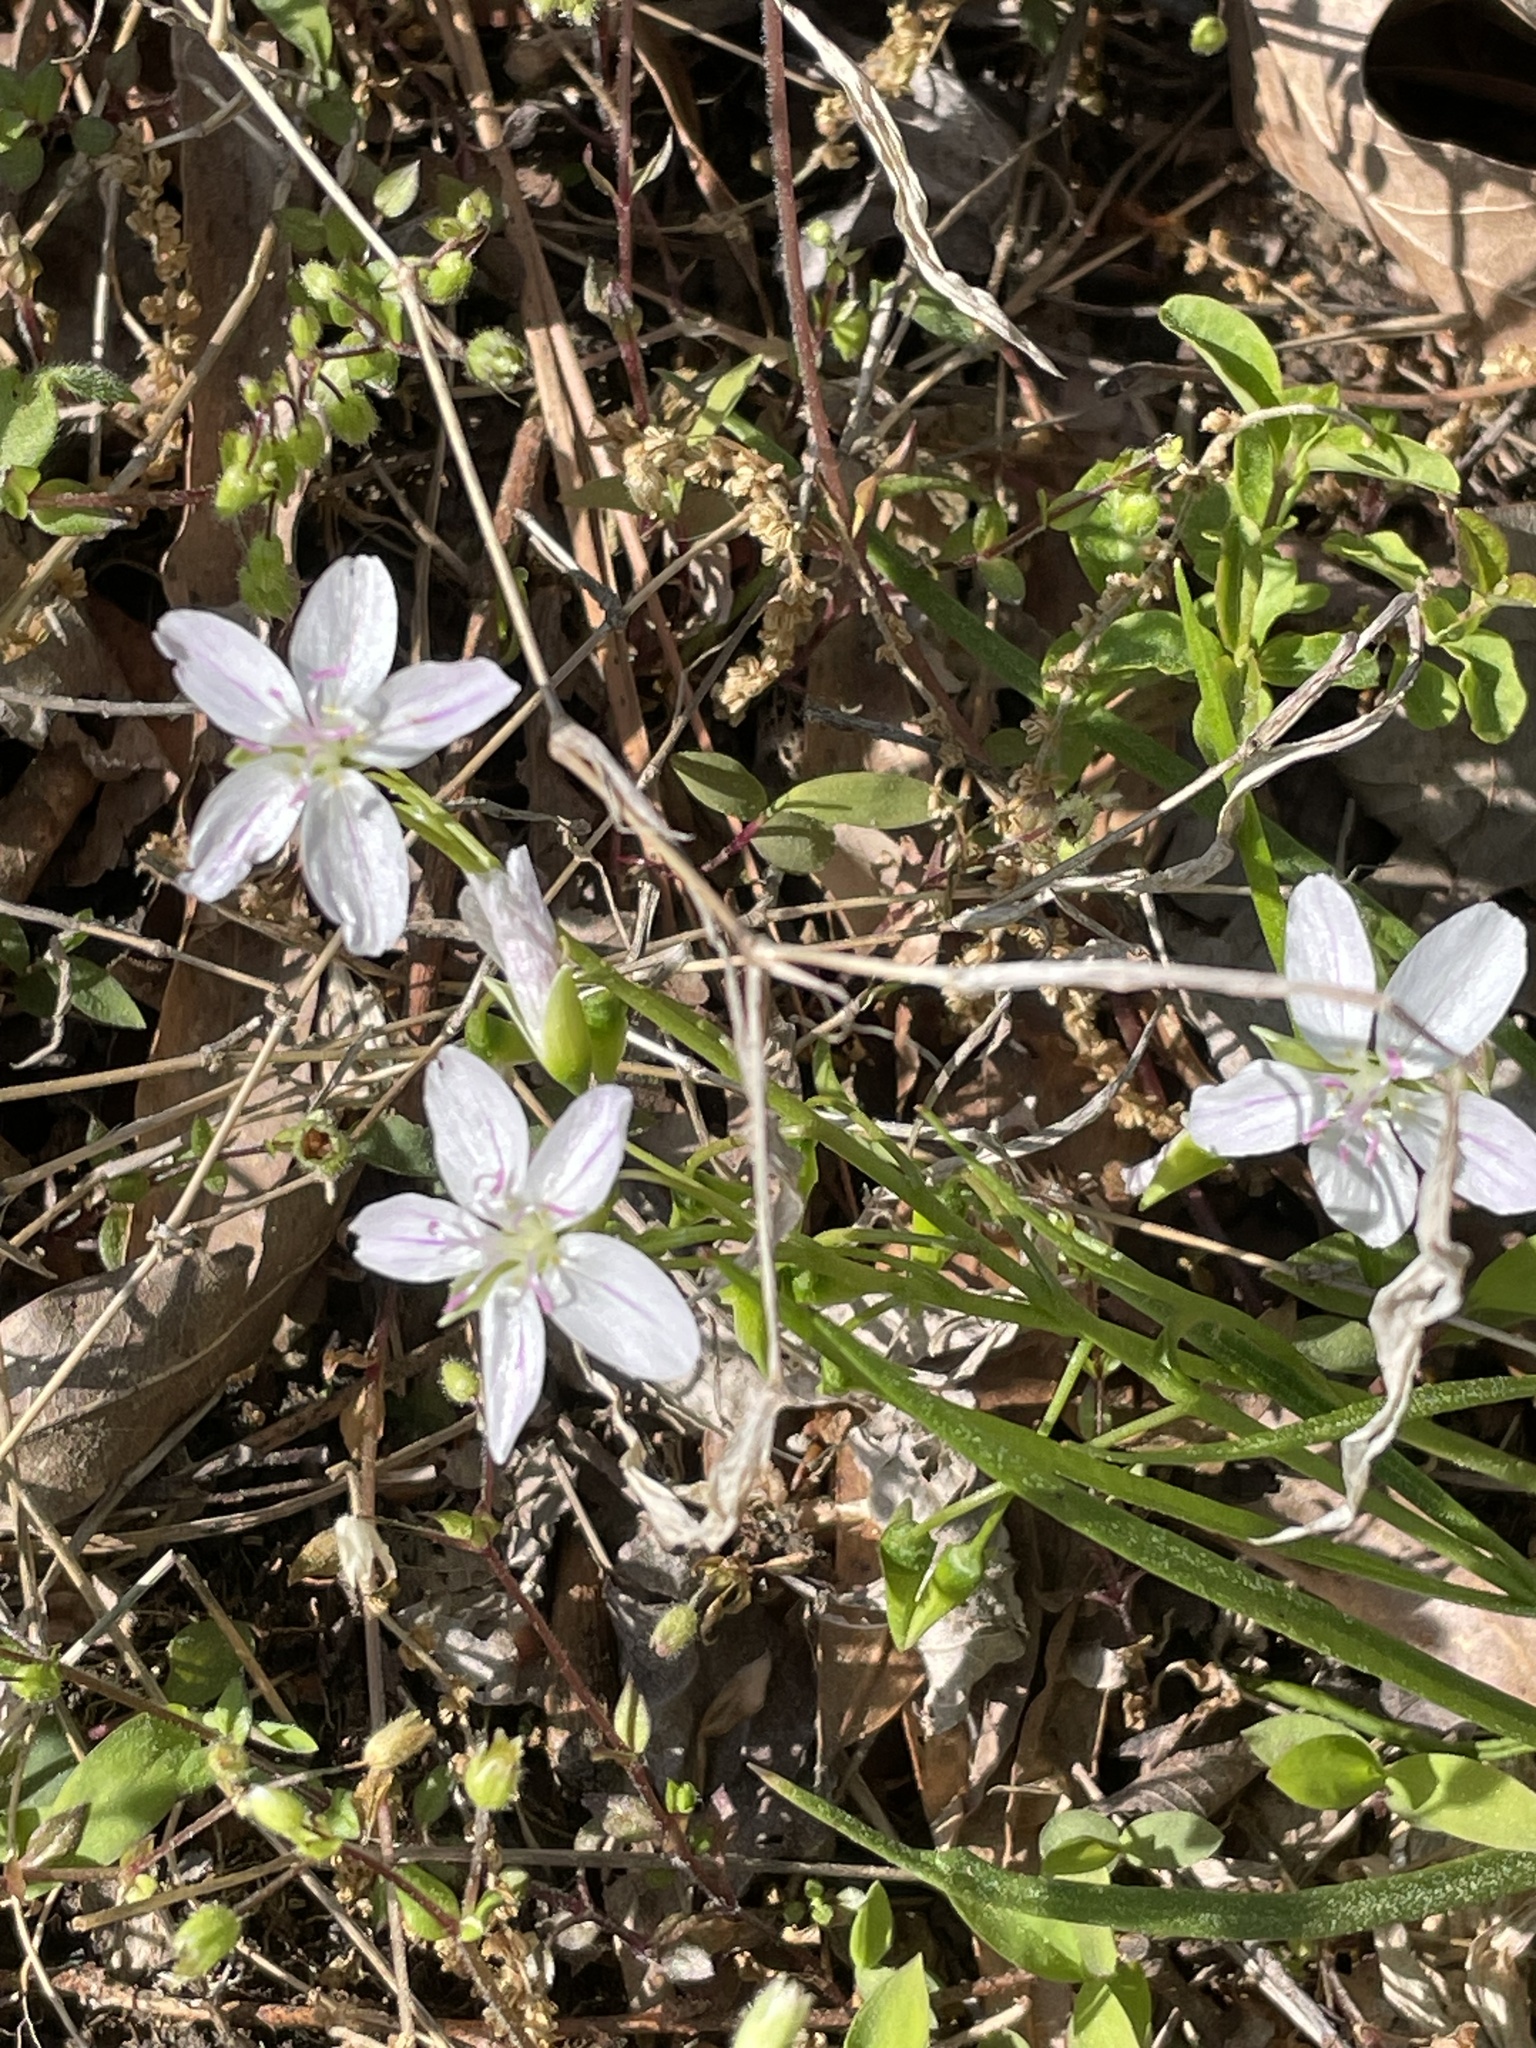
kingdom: Plantae
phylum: Tracheophyta
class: Magnoliopsida
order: Caryophyllales
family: Montiaceae
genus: Claytonia
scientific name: Claytonia virginica
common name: Virginia springbeauty
